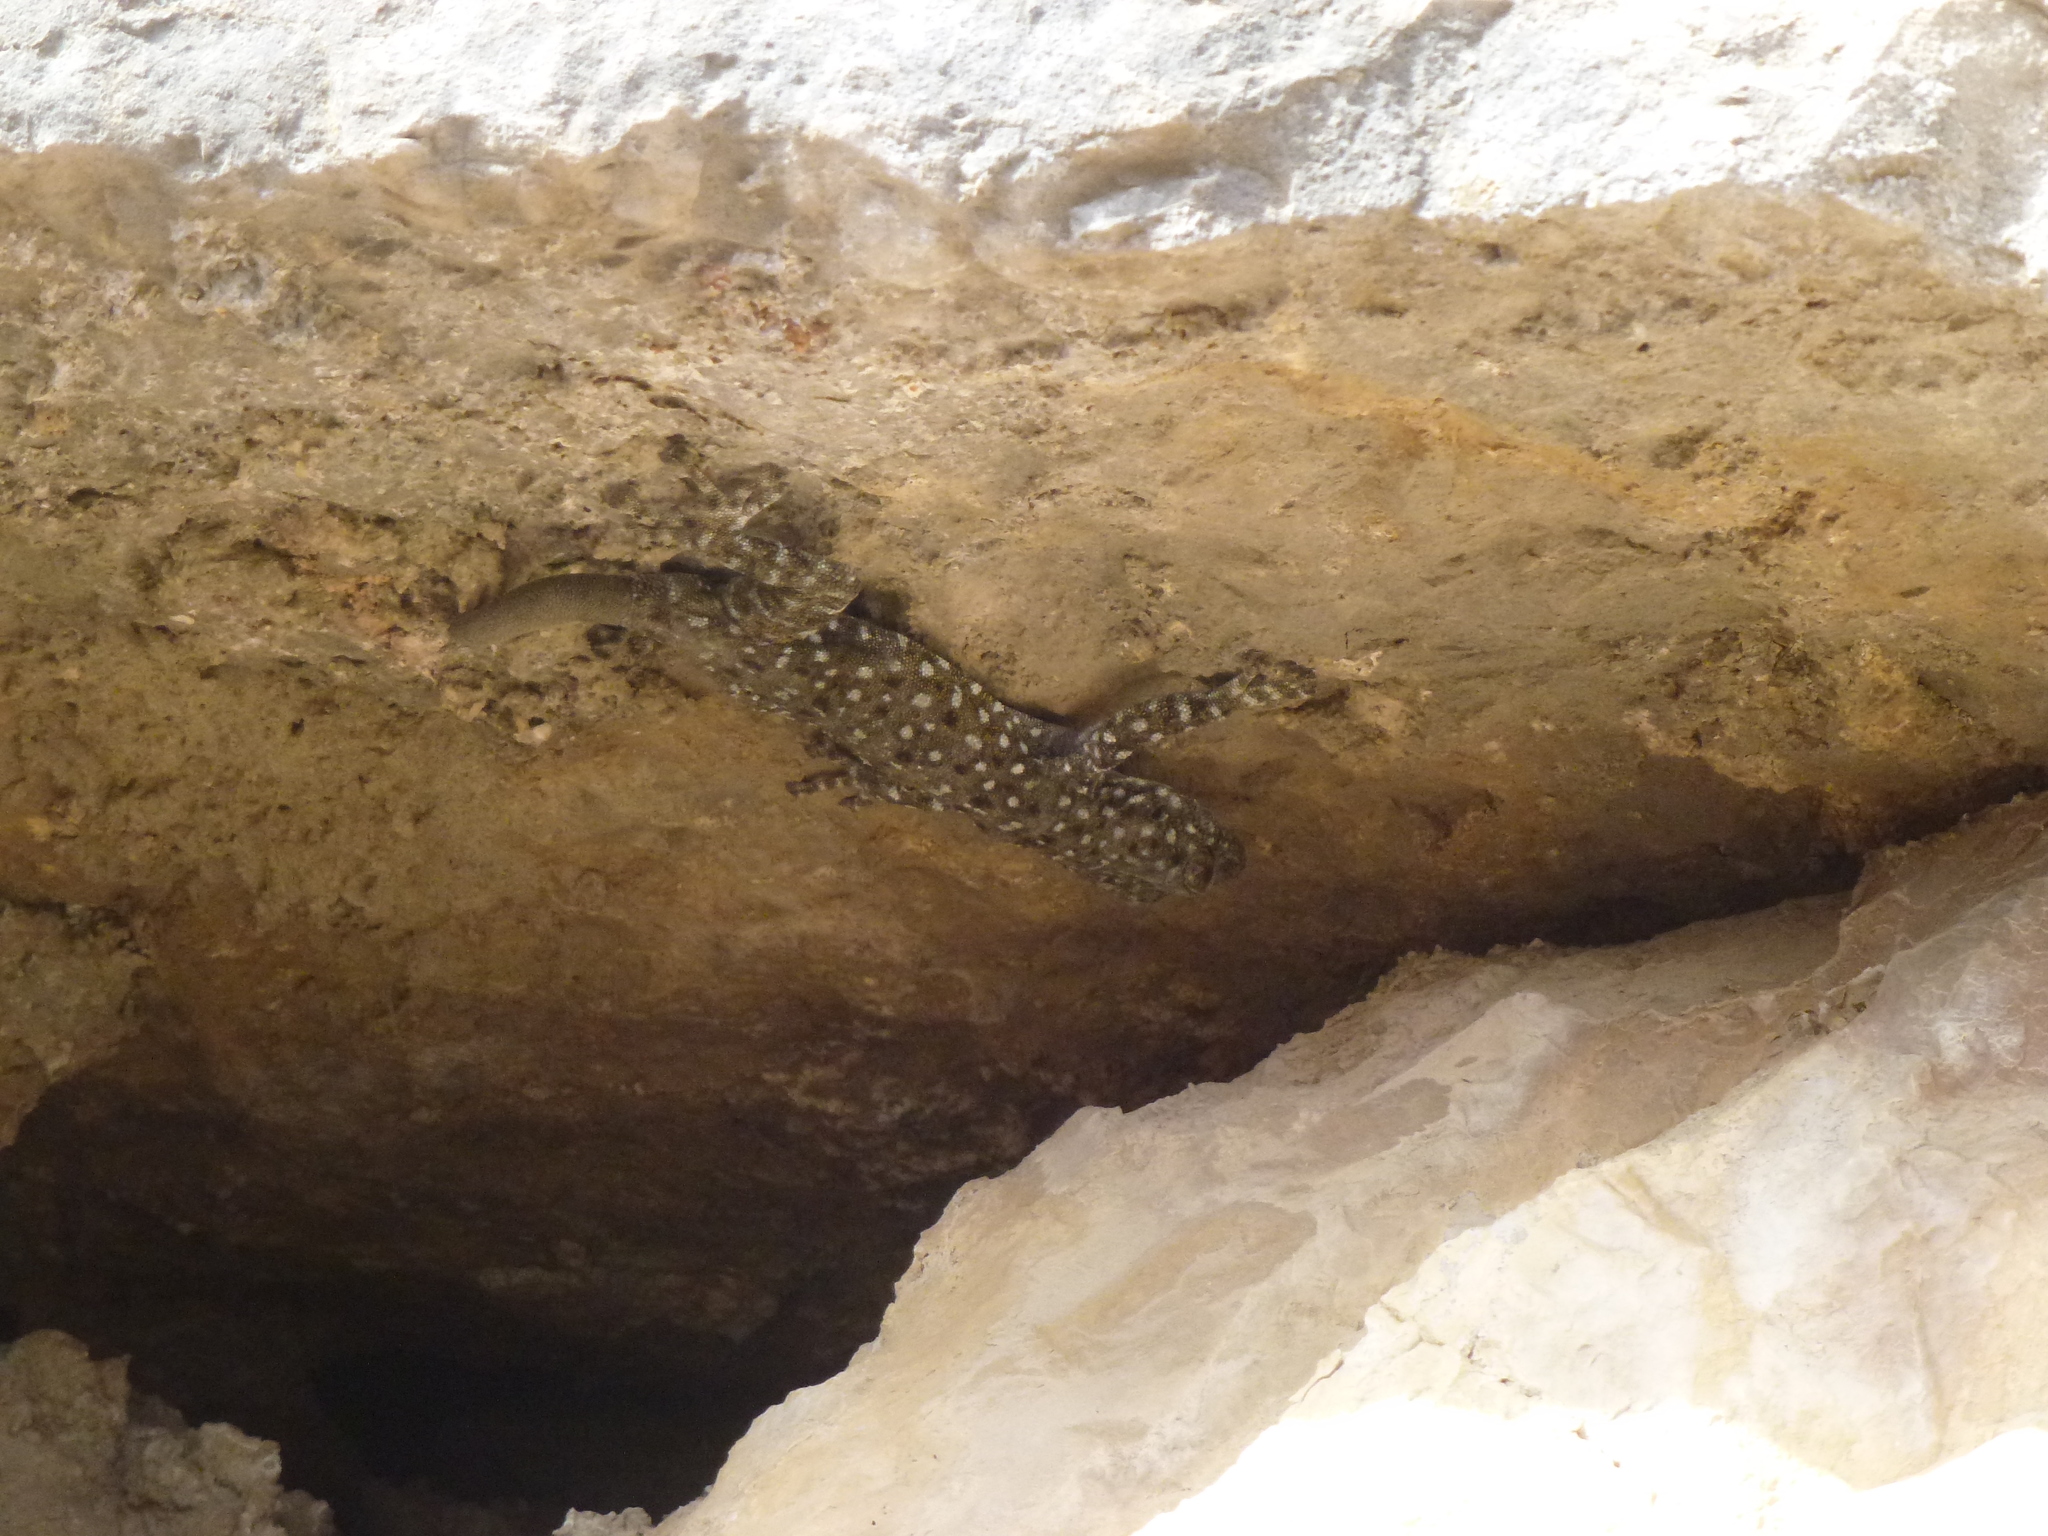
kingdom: Animalia
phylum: Chordata
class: Squamata
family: Phyllodactylidae
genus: Ptyodactylus
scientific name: Ptyodactylus puiseuxi
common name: Israeli fan-fingered gecko
